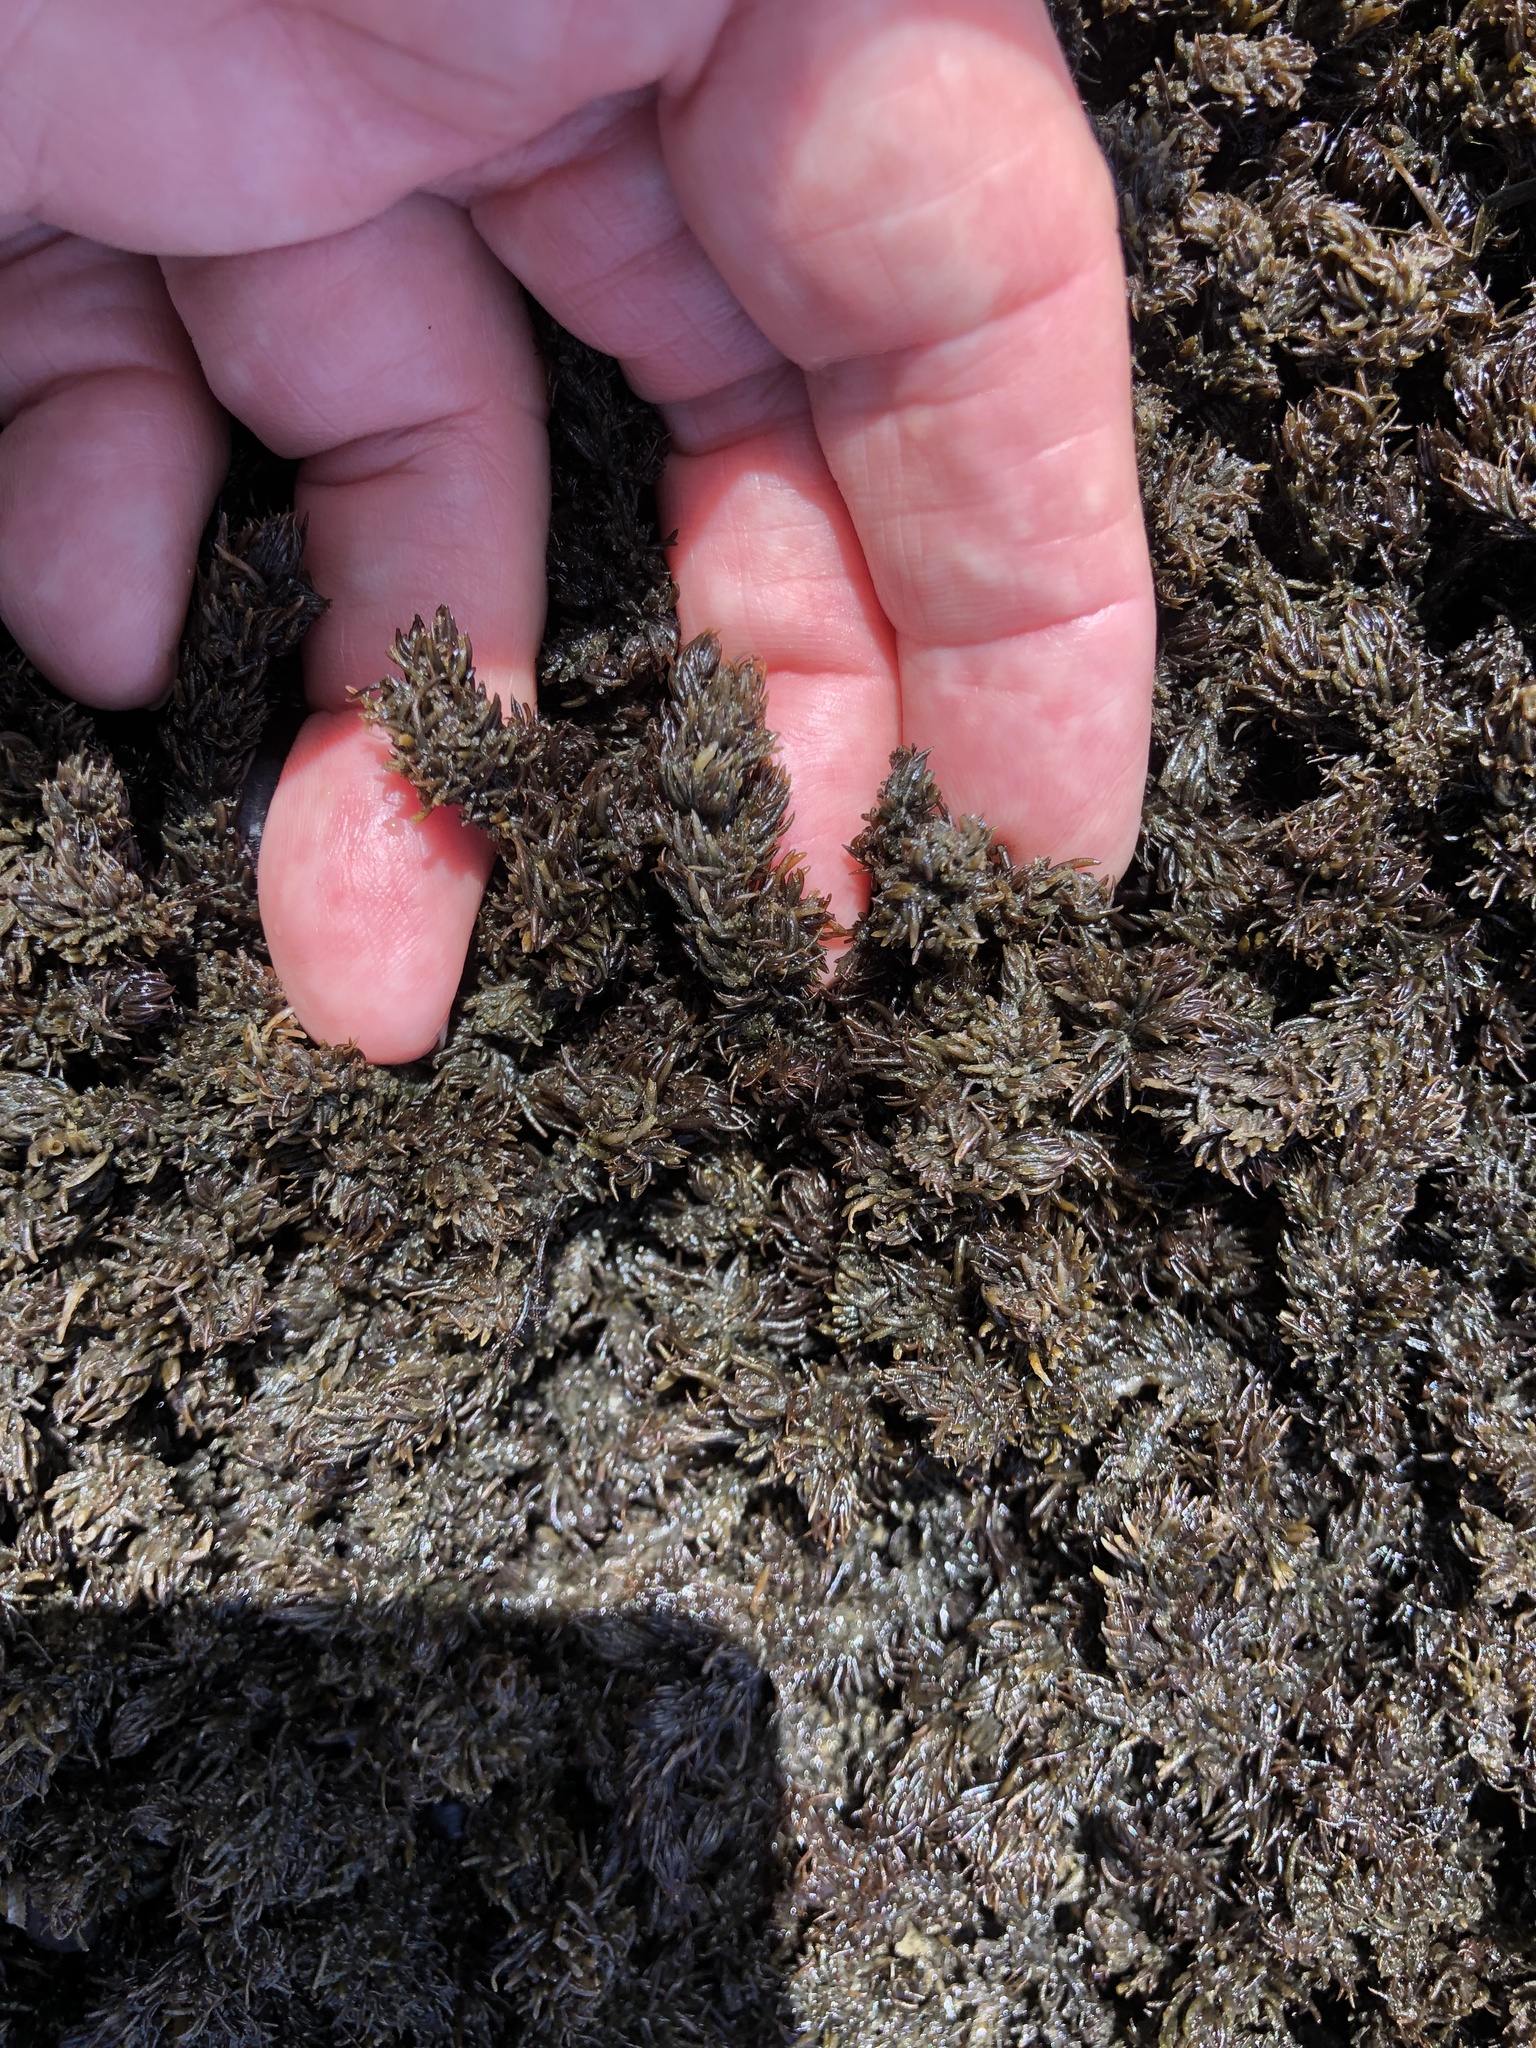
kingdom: Plantae
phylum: Rhodophyta
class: Florideophyceae
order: Ceramiales
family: Rhodomelaceae
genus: Neorhodomela
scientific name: Neorhodomela larix
